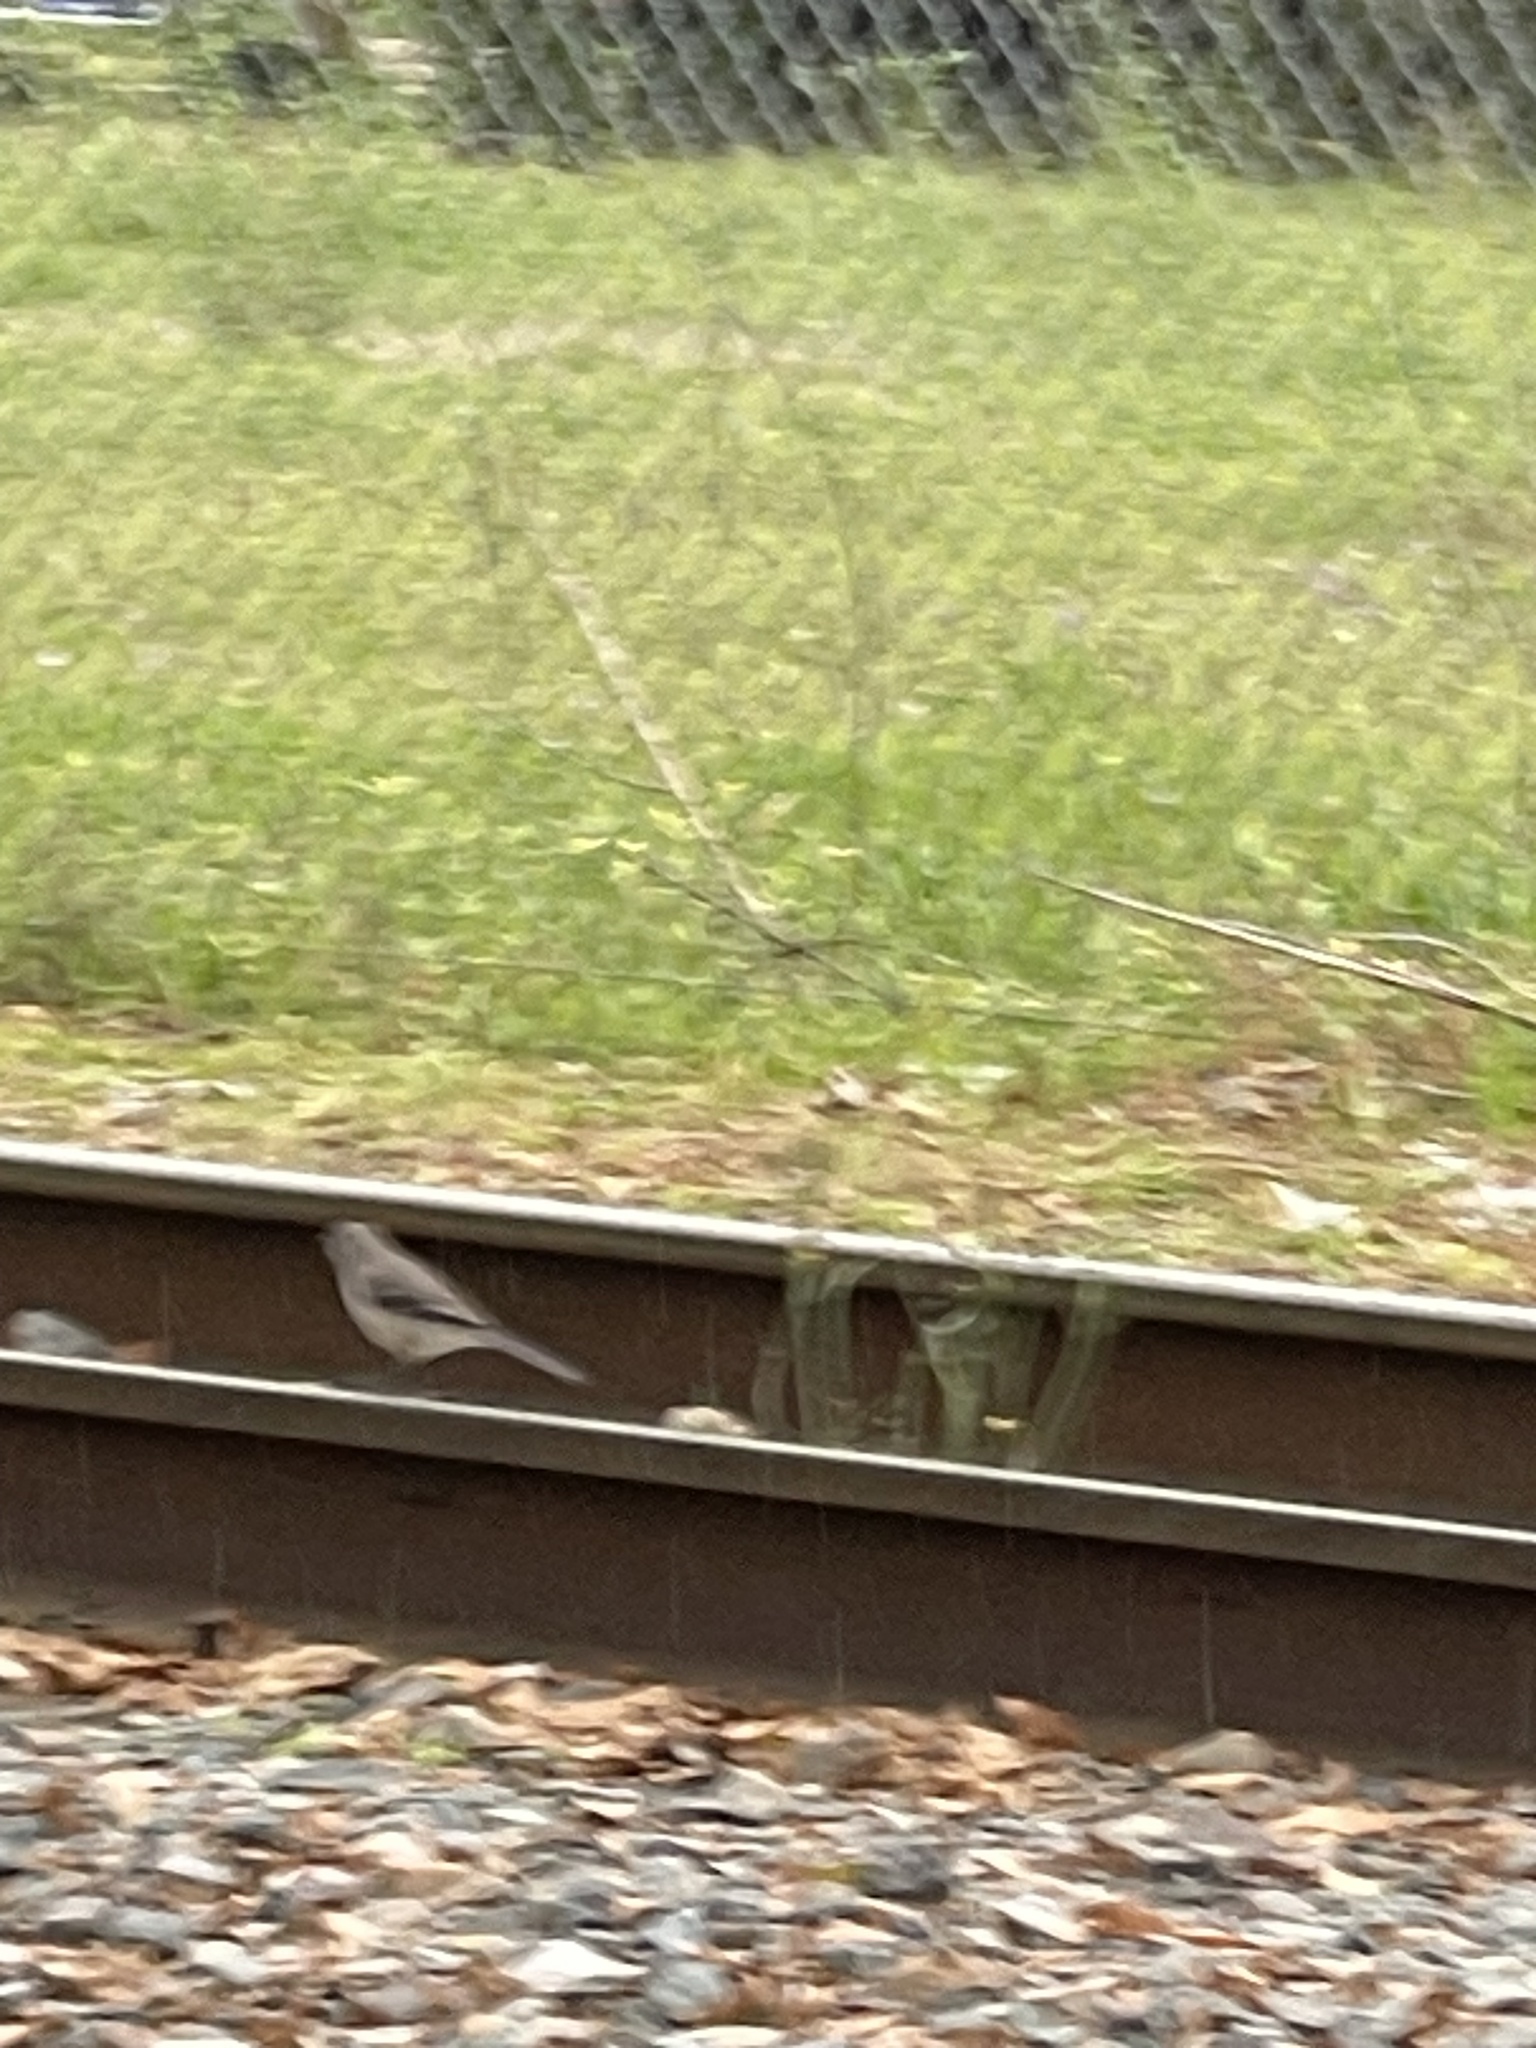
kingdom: Animalia
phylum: Chordata
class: Aves
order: Passeriformes
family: Mimidae
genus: Mimus
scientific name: Mimus polyglottos
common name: Northern mockingbird
